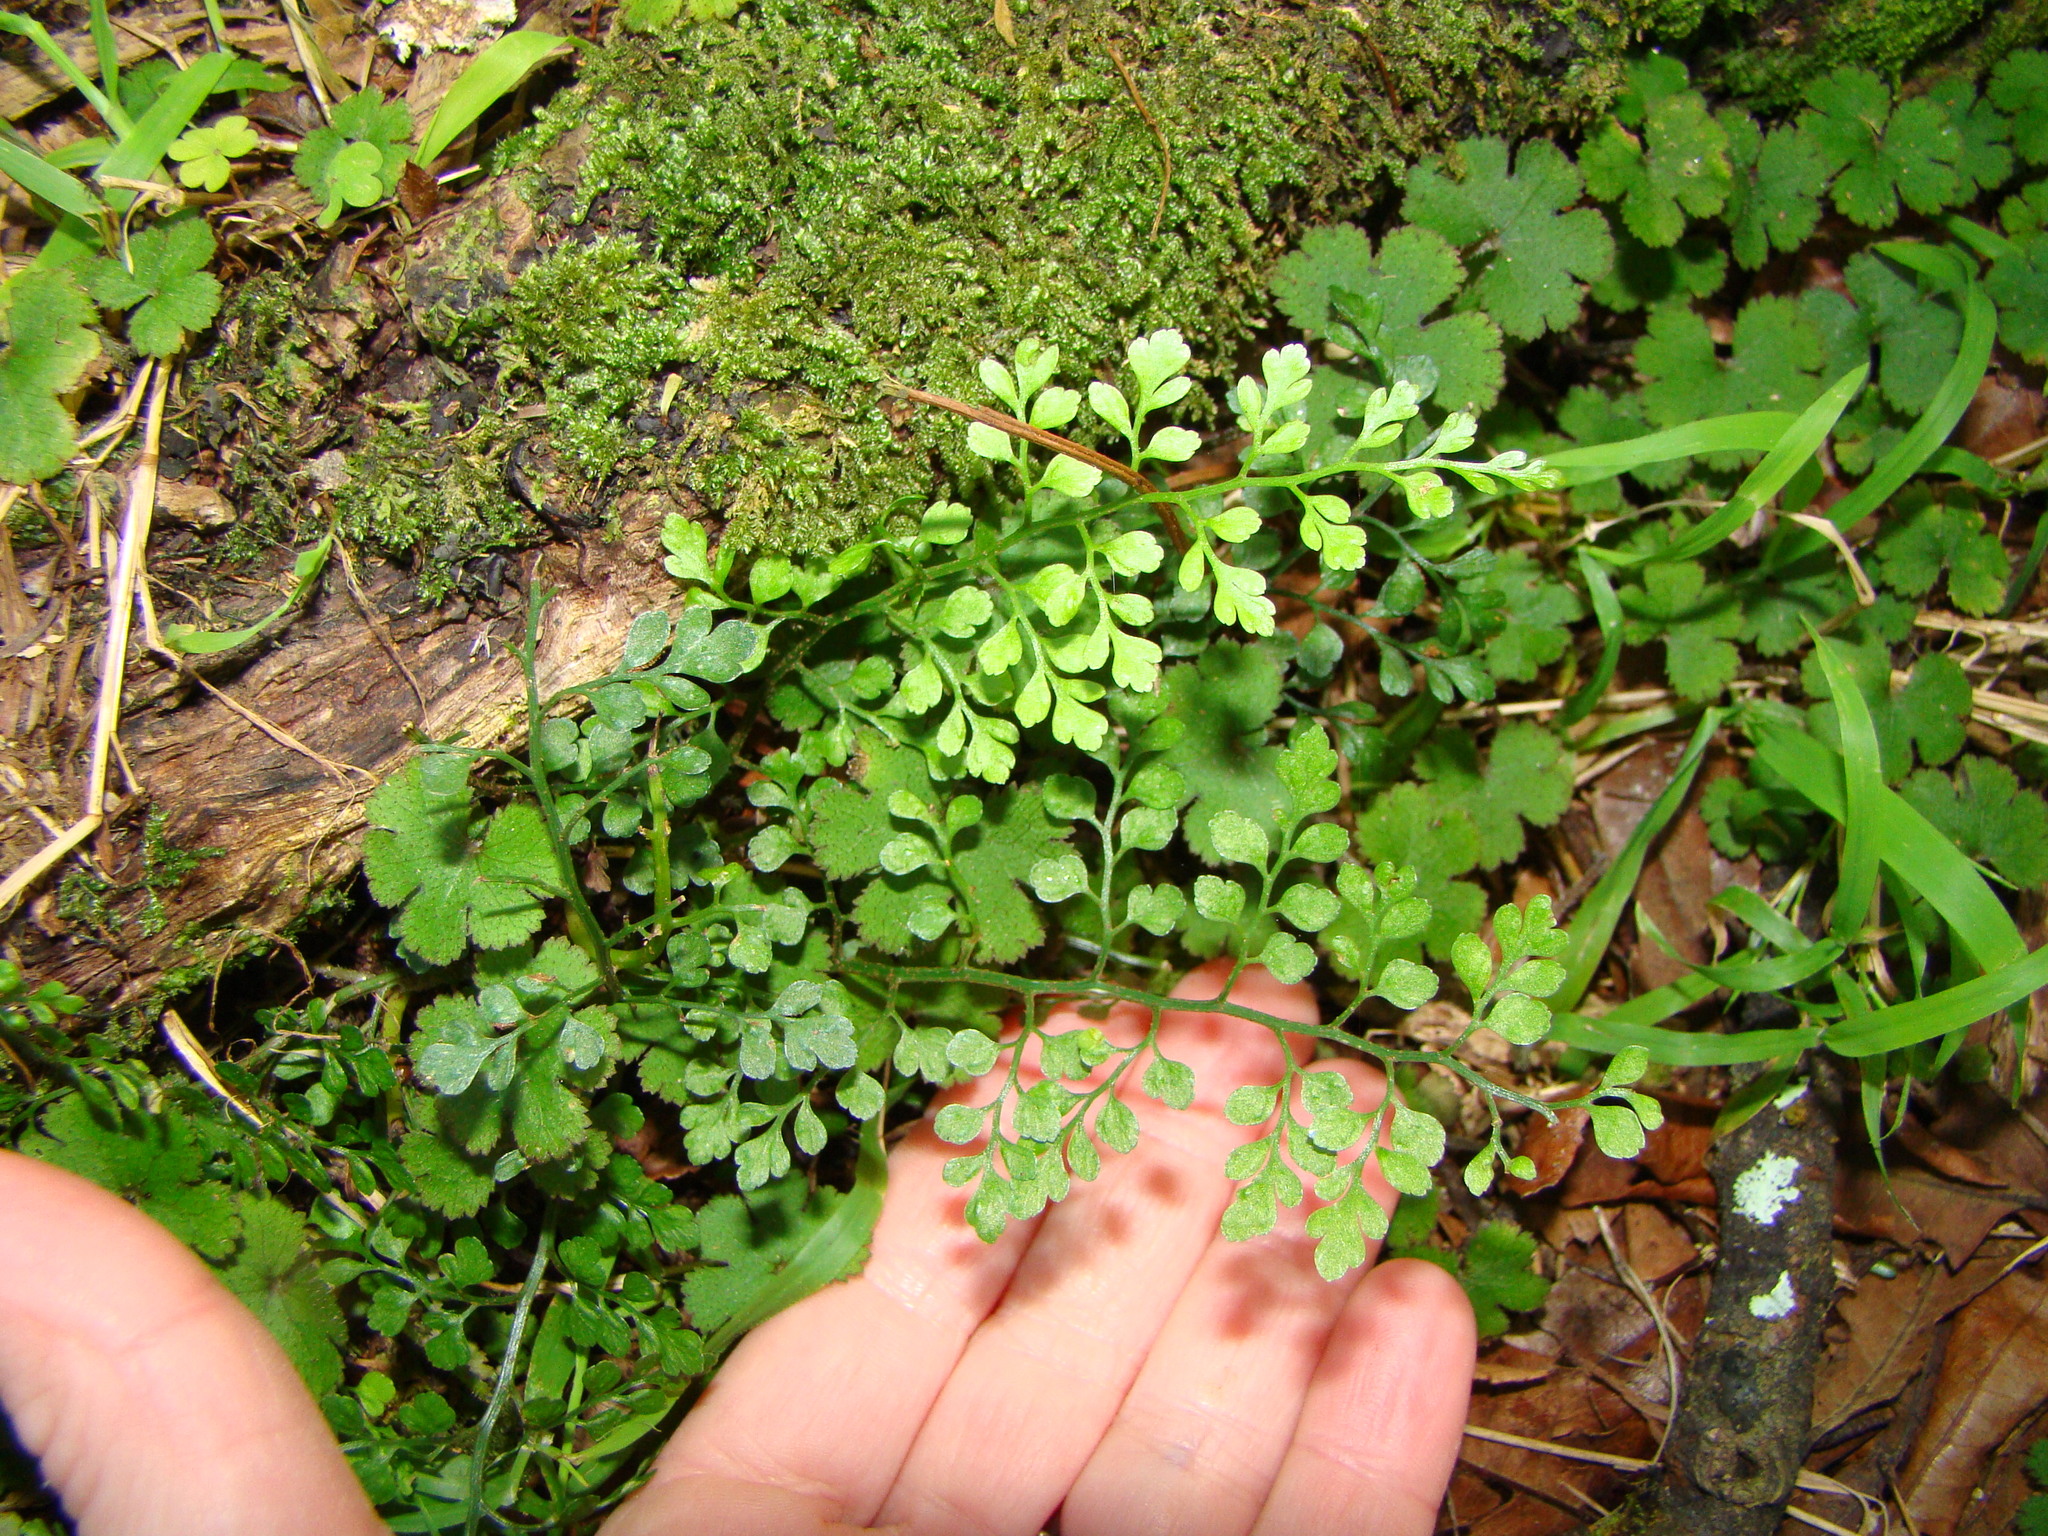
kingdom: Plantae
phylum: Tracheophyta
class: Polypodiopsida
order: Polypodiales
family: Aspleniaceae
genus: Asplenium
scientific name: Asplenium hookerianum
